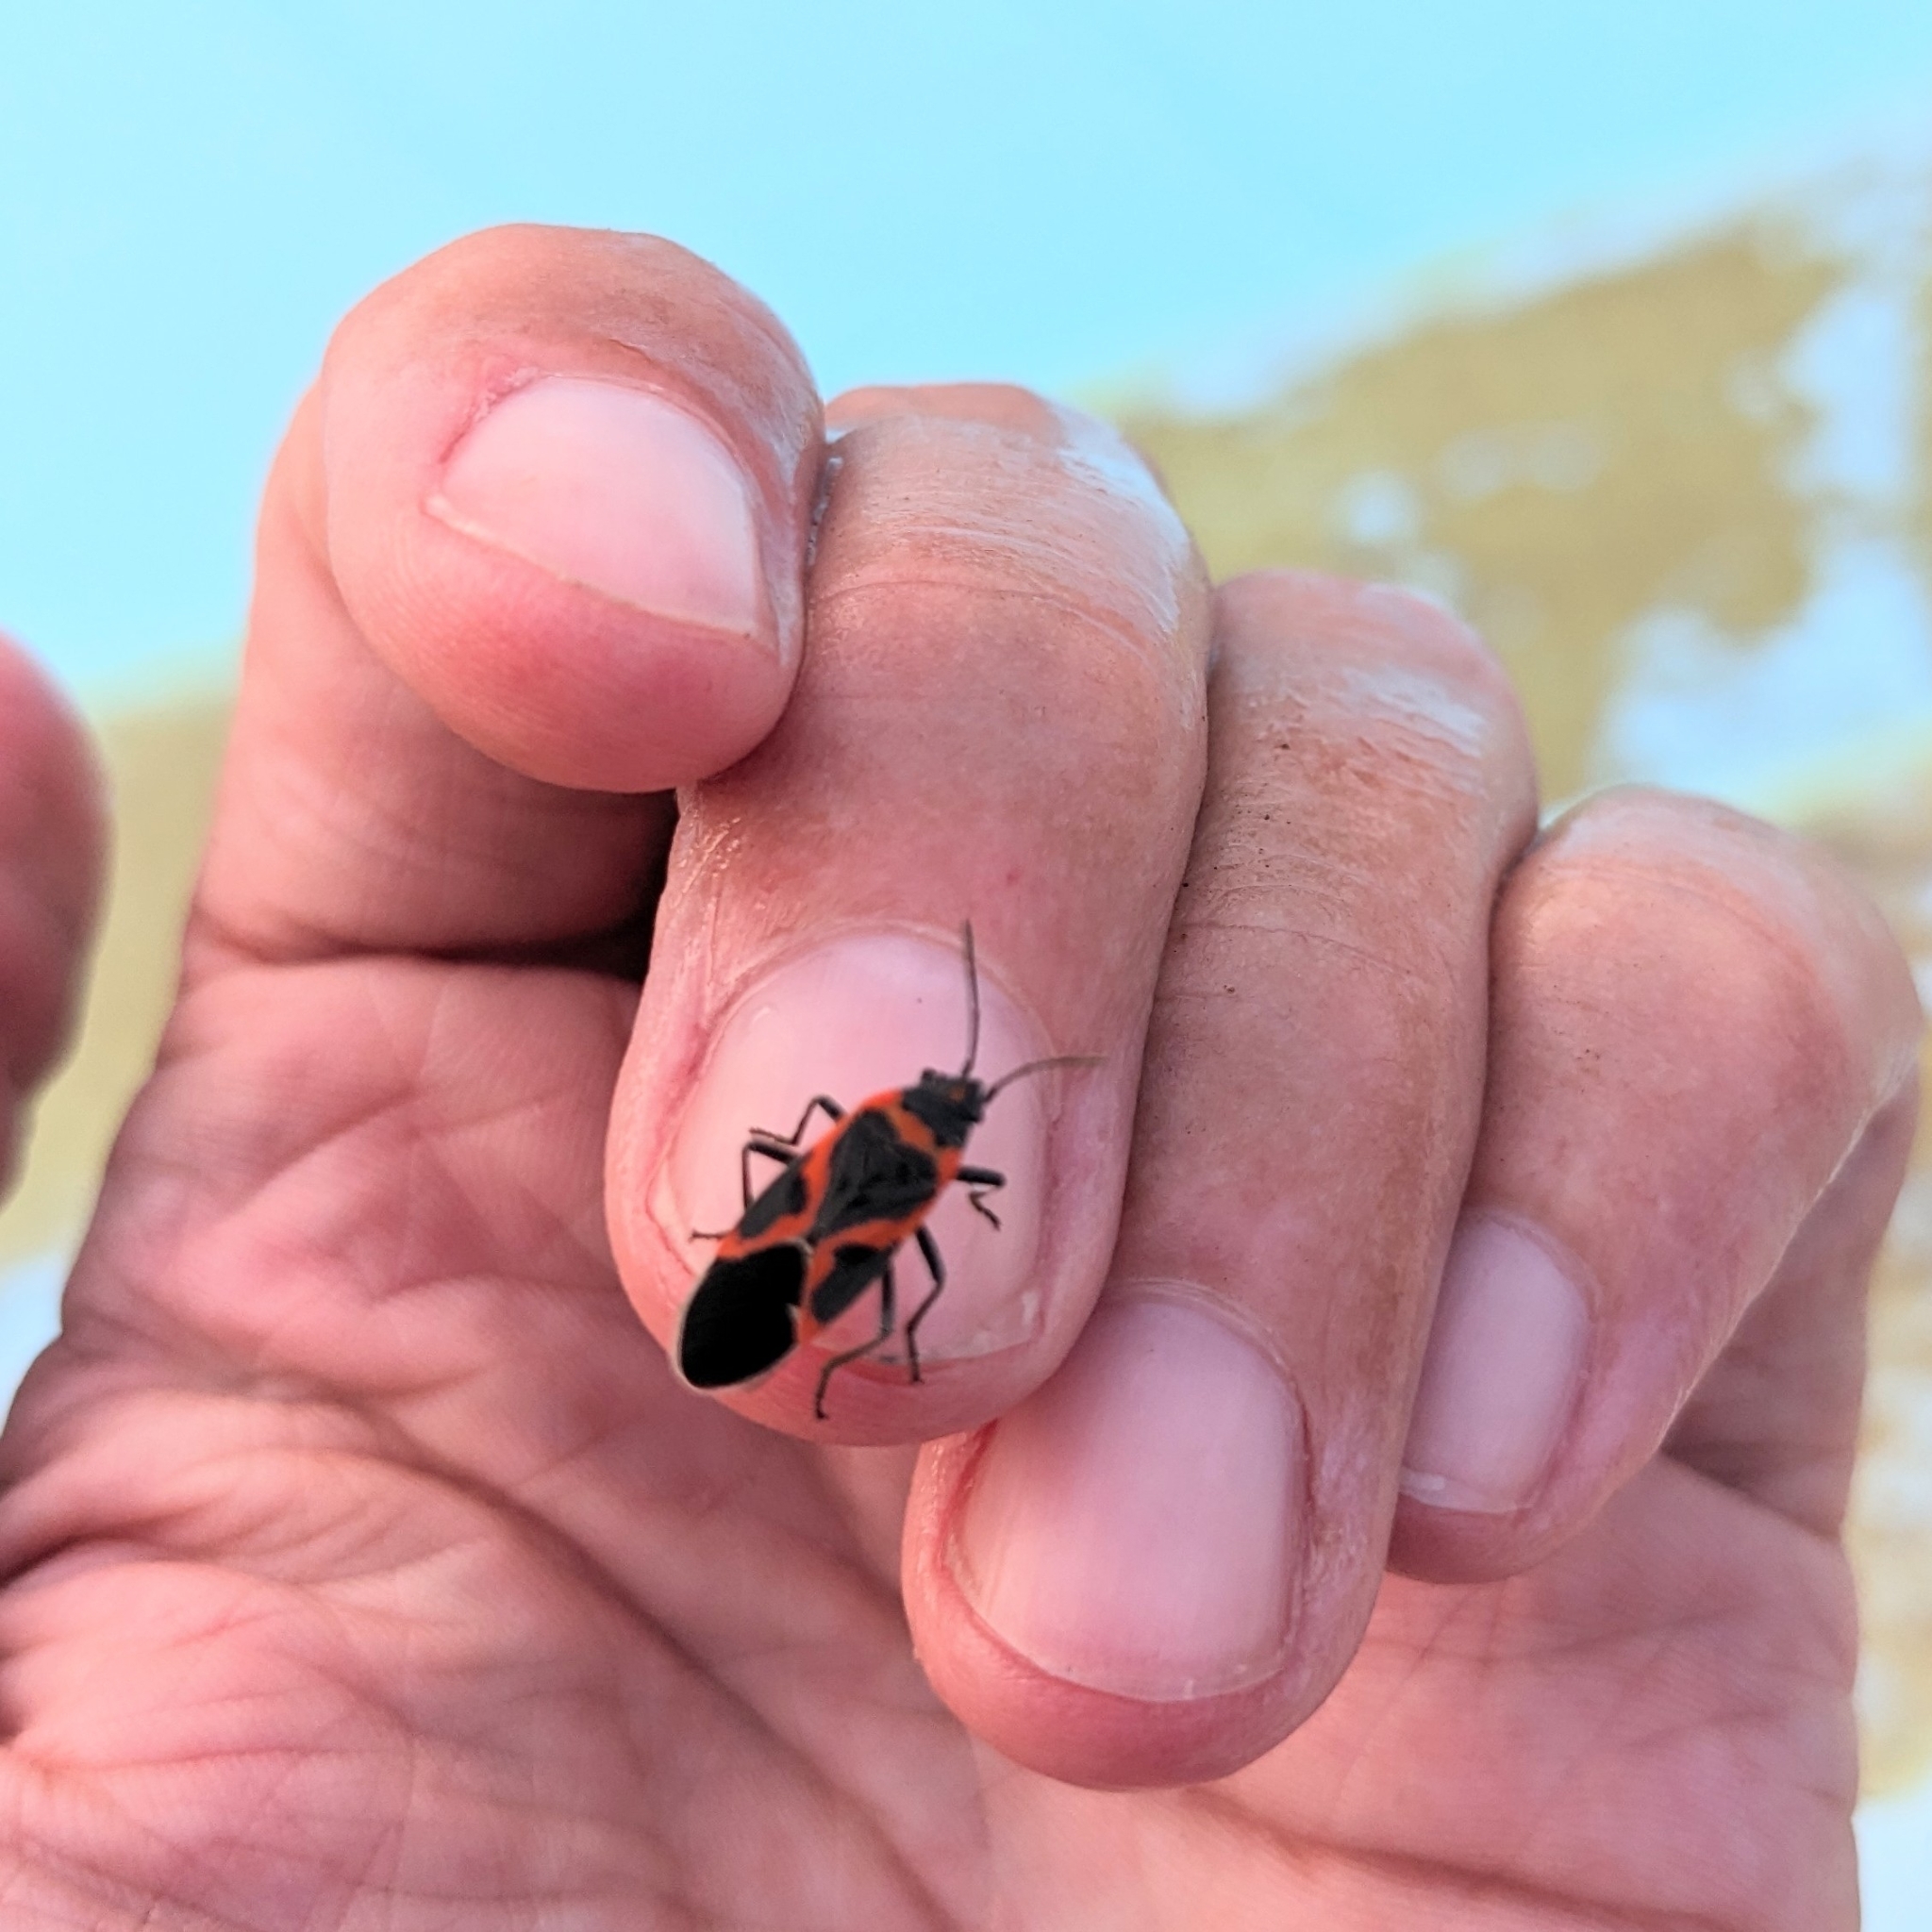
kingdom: Animalia
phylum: Arthropoda
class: Insecta
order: Hemiptera
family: Lygaeidae
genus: Lygaeus
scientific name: Lygaeus kalmii
